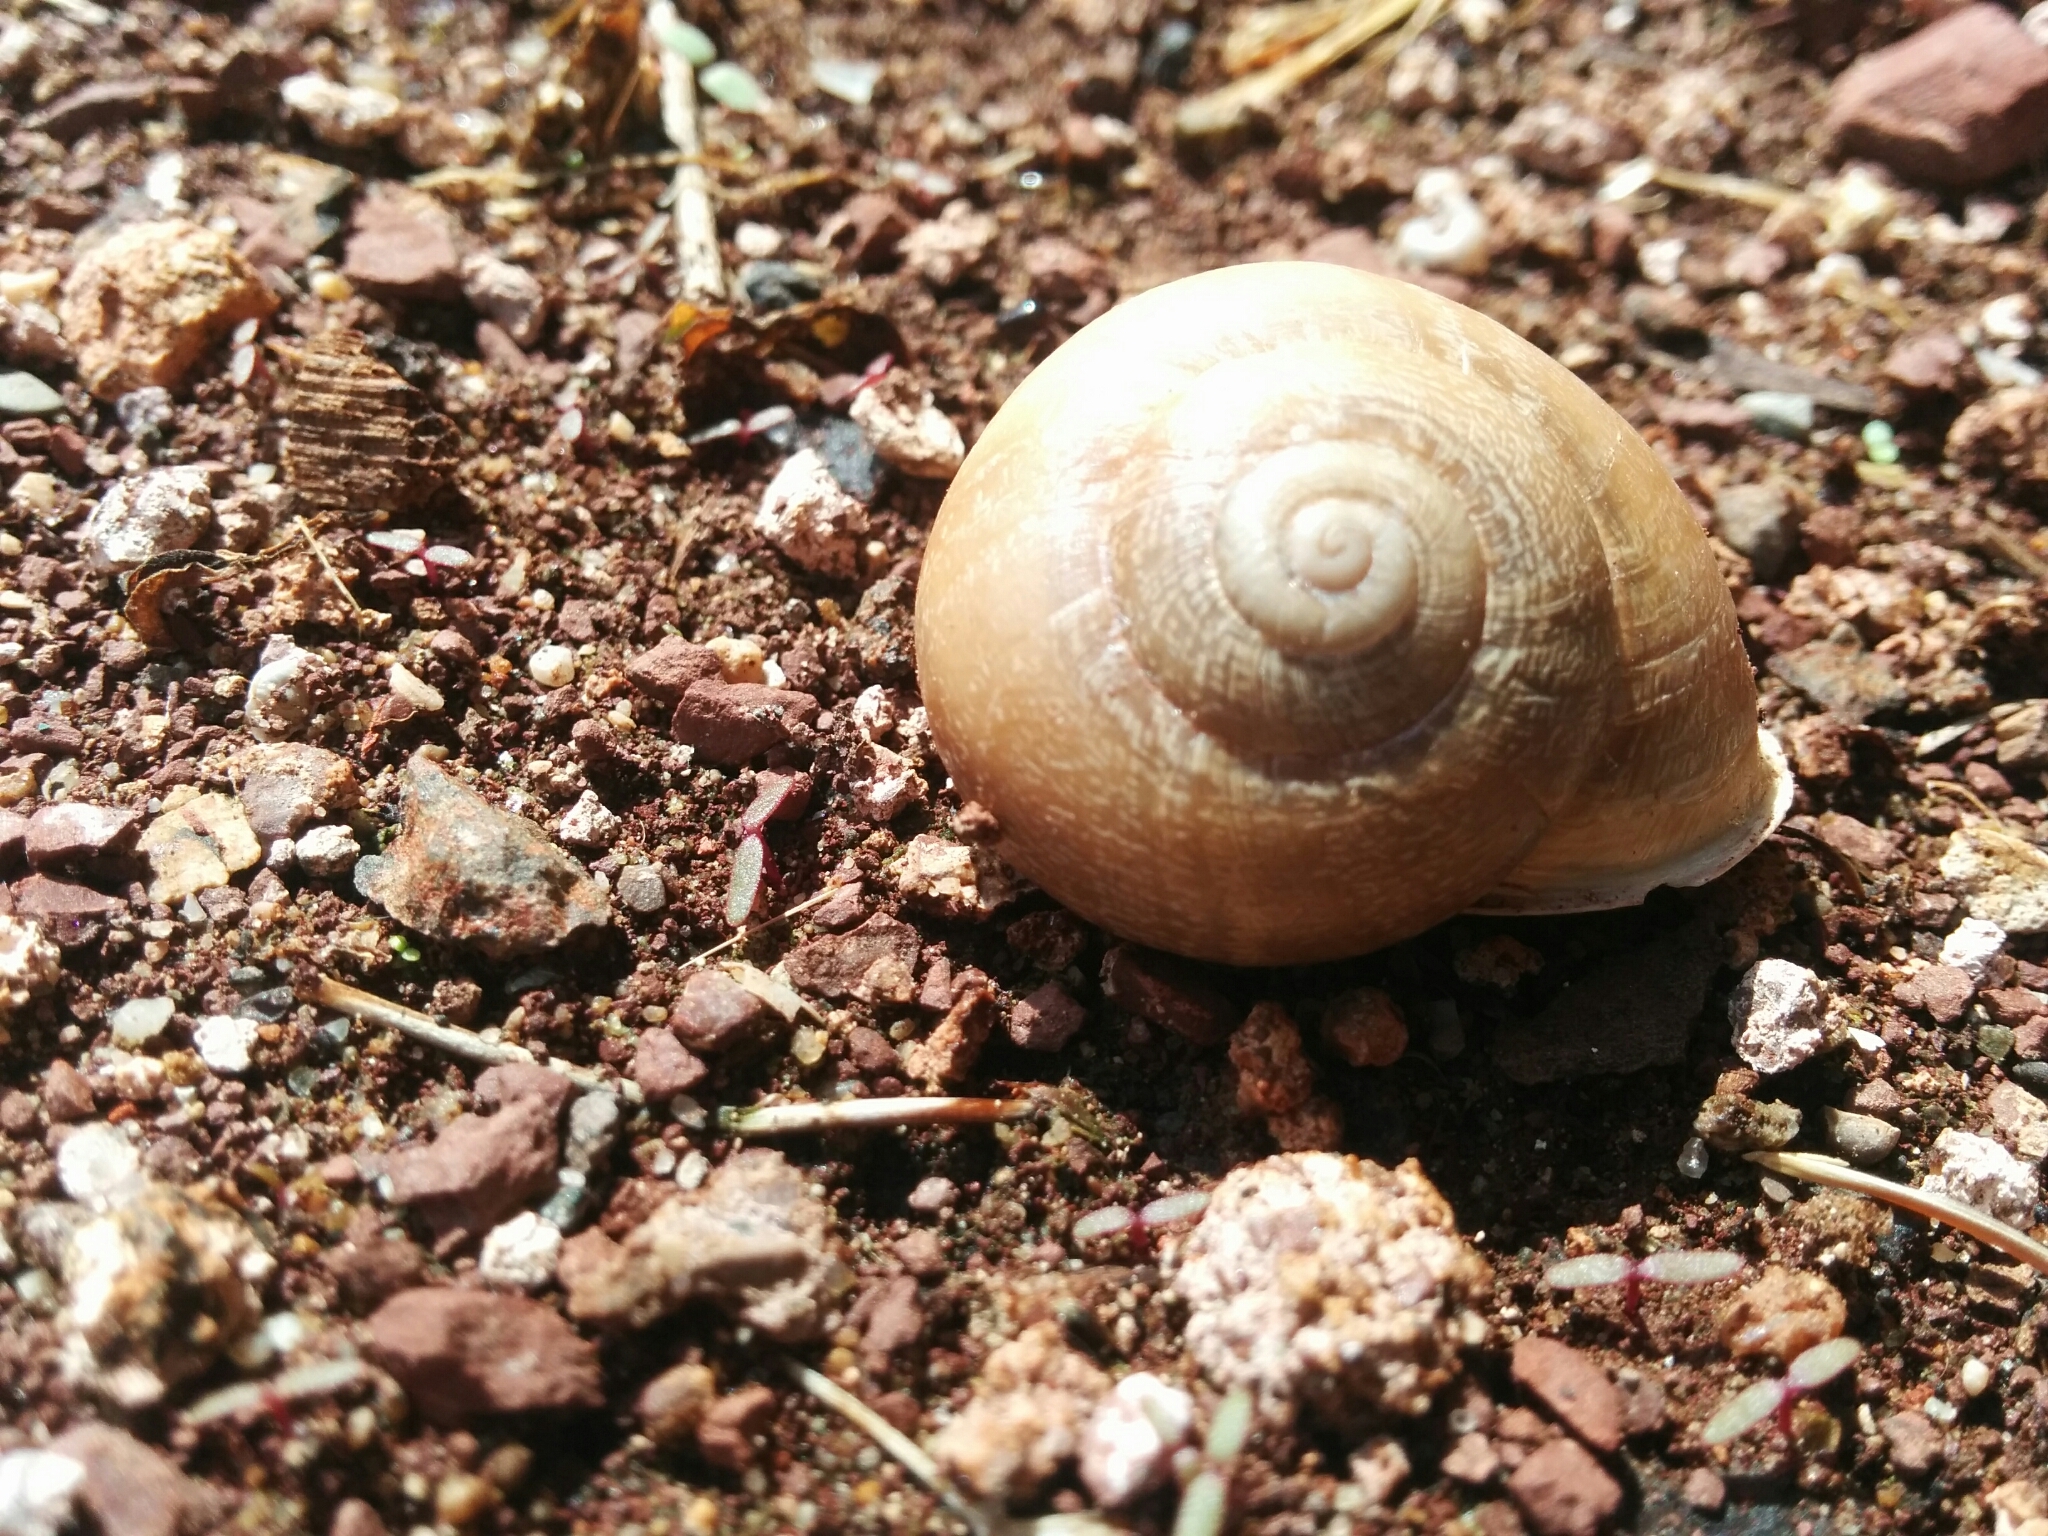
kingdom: Animalia
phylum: Mollusca
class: Gastropoda
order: Stylommatophora
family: Helicidae
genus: Eobania
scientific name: Eobania vermiculata
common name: Chocolateband snail
